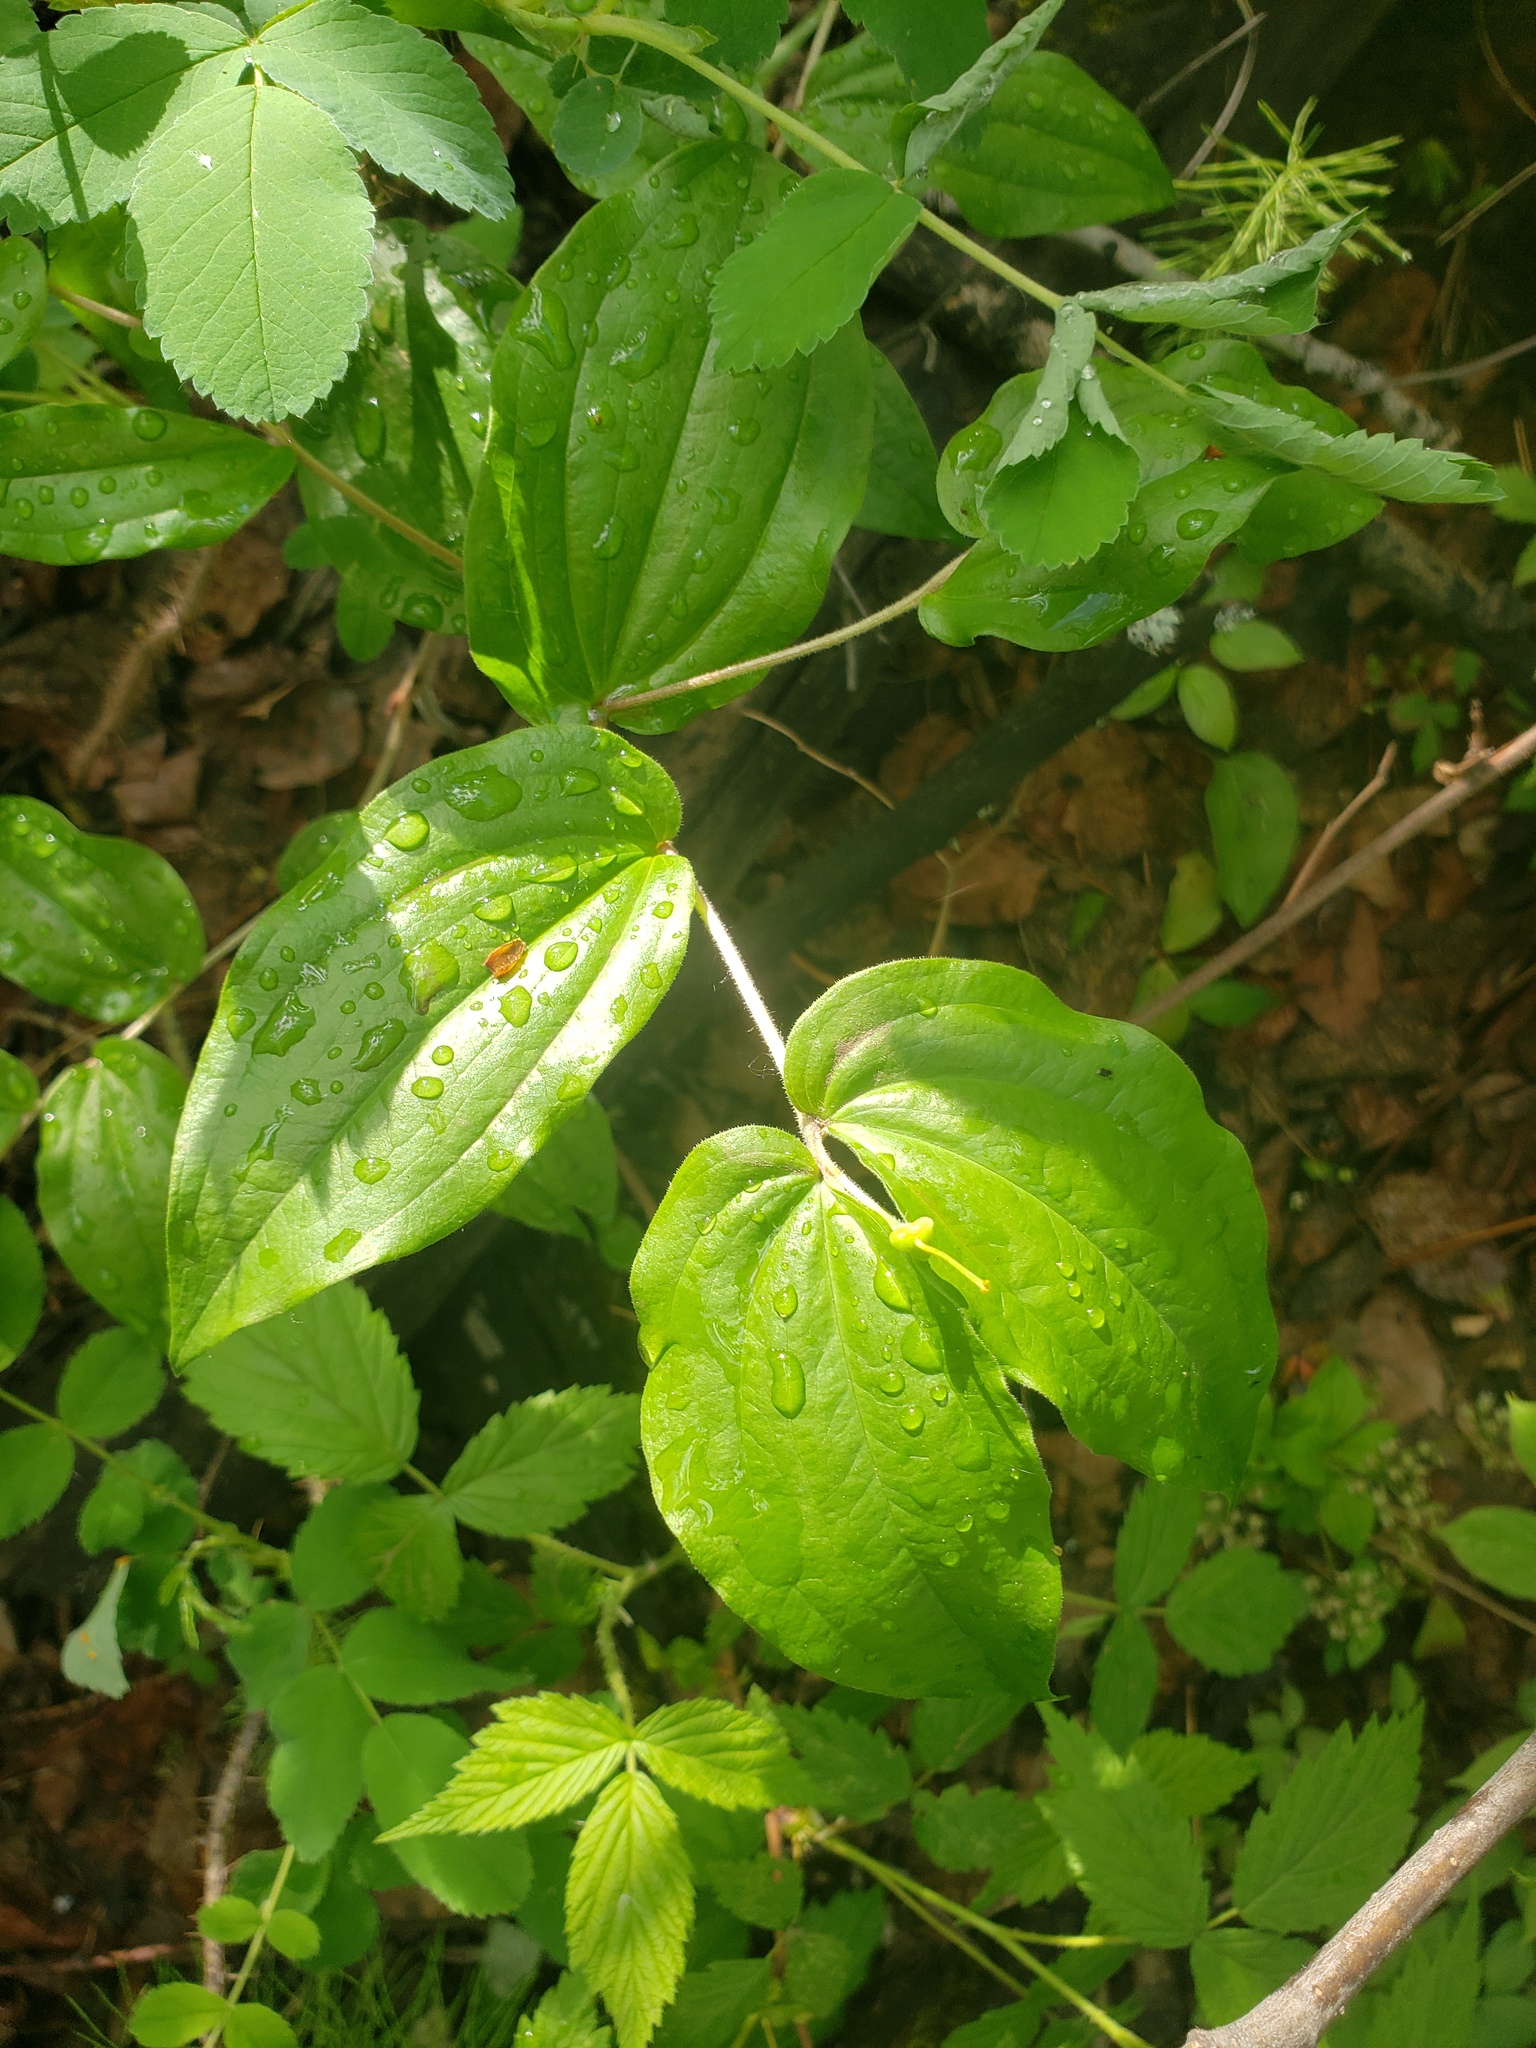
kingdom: Plantae
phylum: Tracheophyta
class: Liliopsida
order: Liliales
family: Liliaceae
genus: Prosartes
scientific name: Prosartes trachycarpa
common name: Rough-fruit fairy-bells
